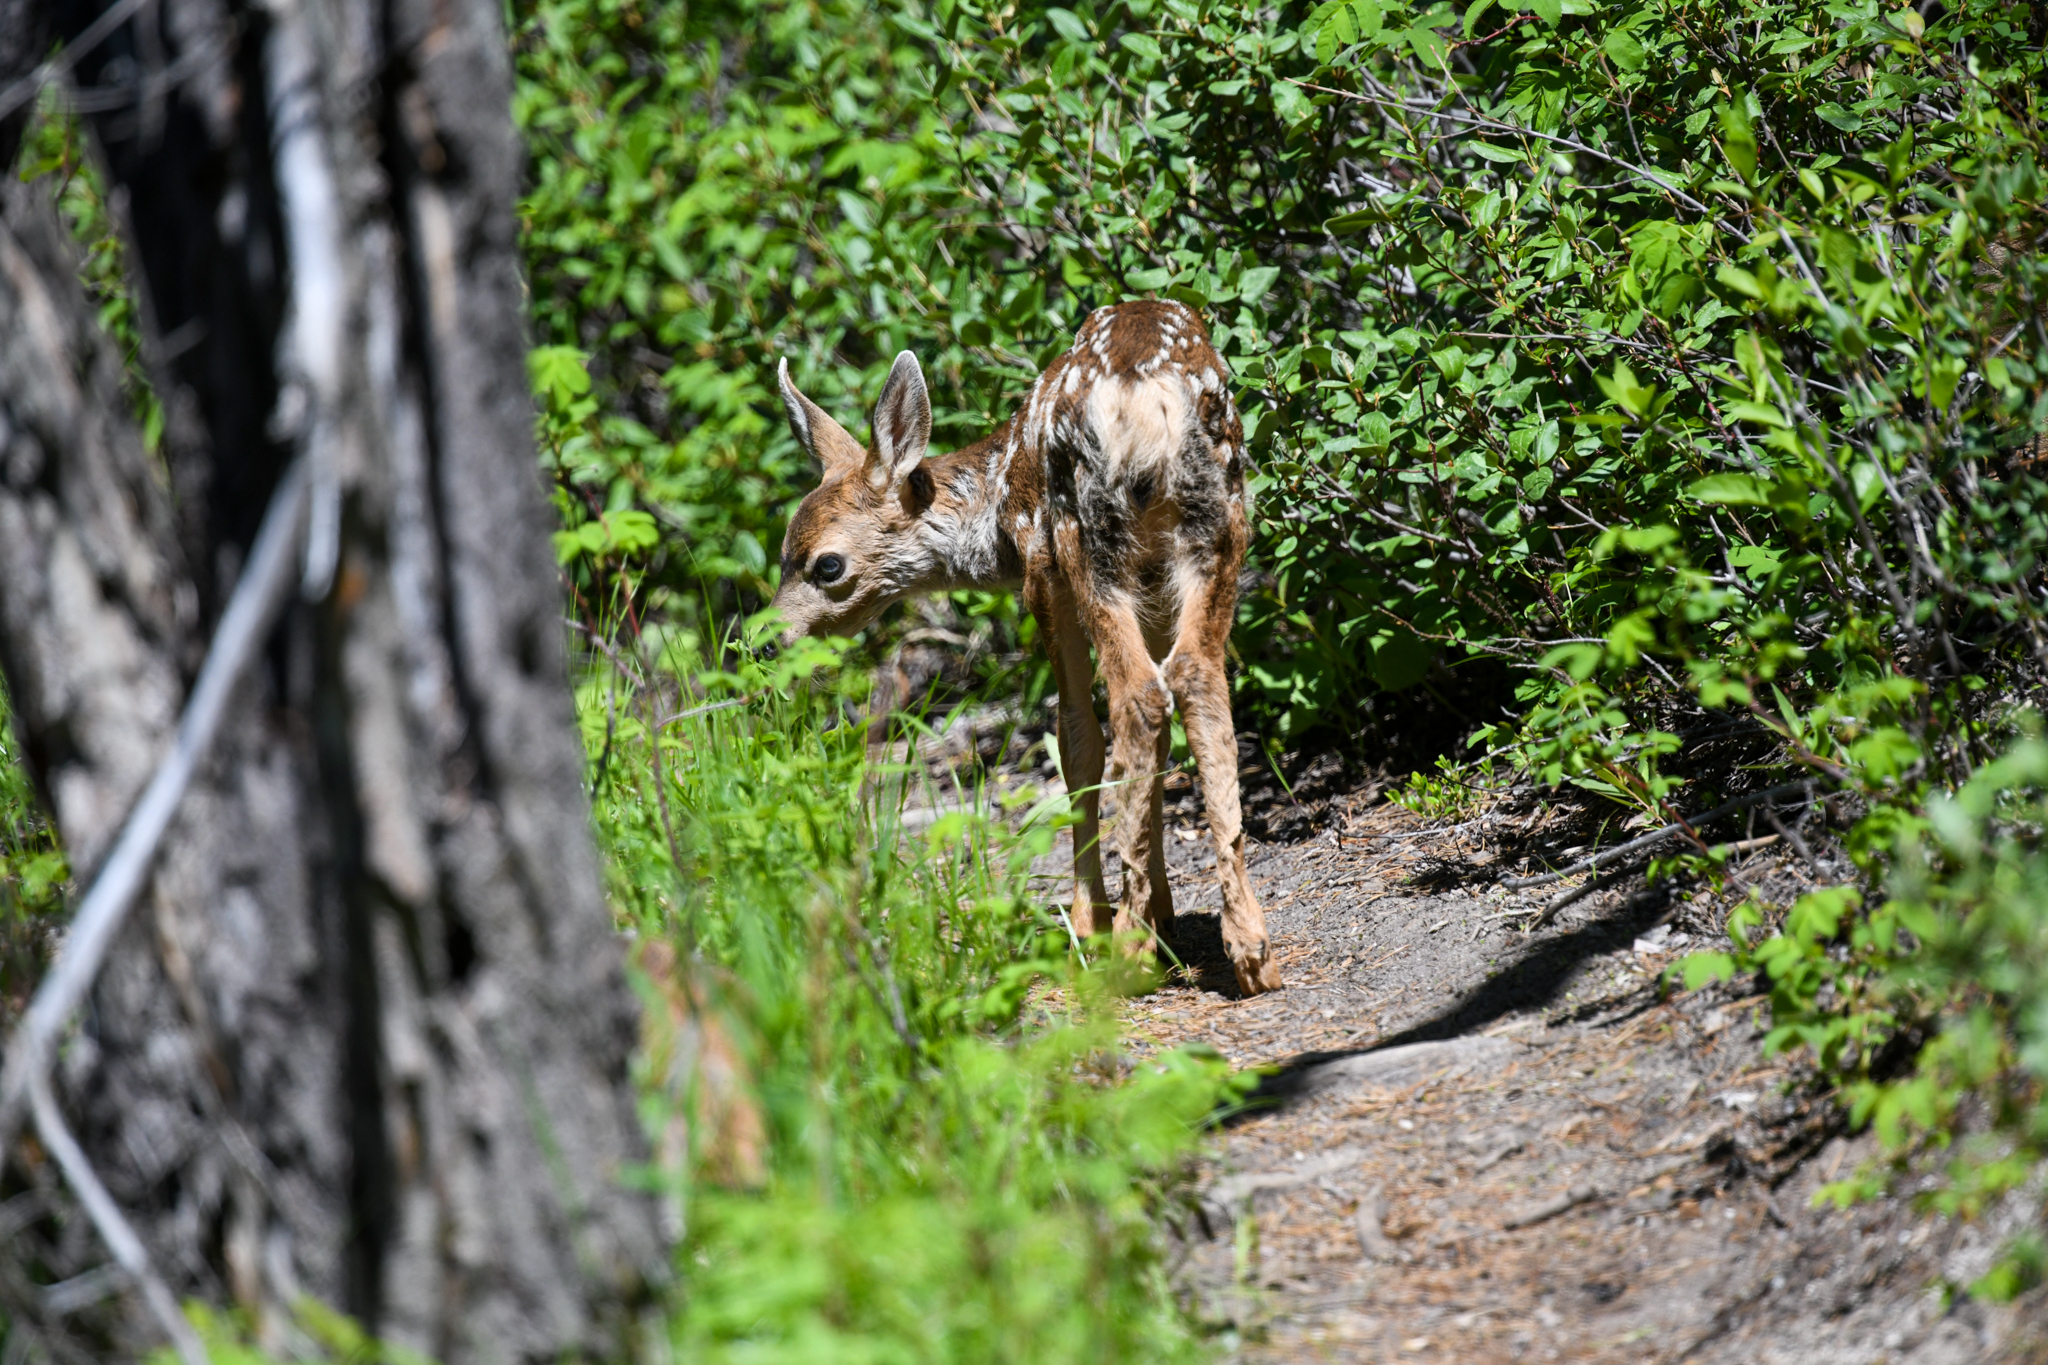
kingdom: Animalia
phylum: Chordata
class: Mammalia
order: Artiodactyla
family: Cervidae
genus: Odocoileus
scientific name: Odocoileus hemionus
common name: Mule deer
